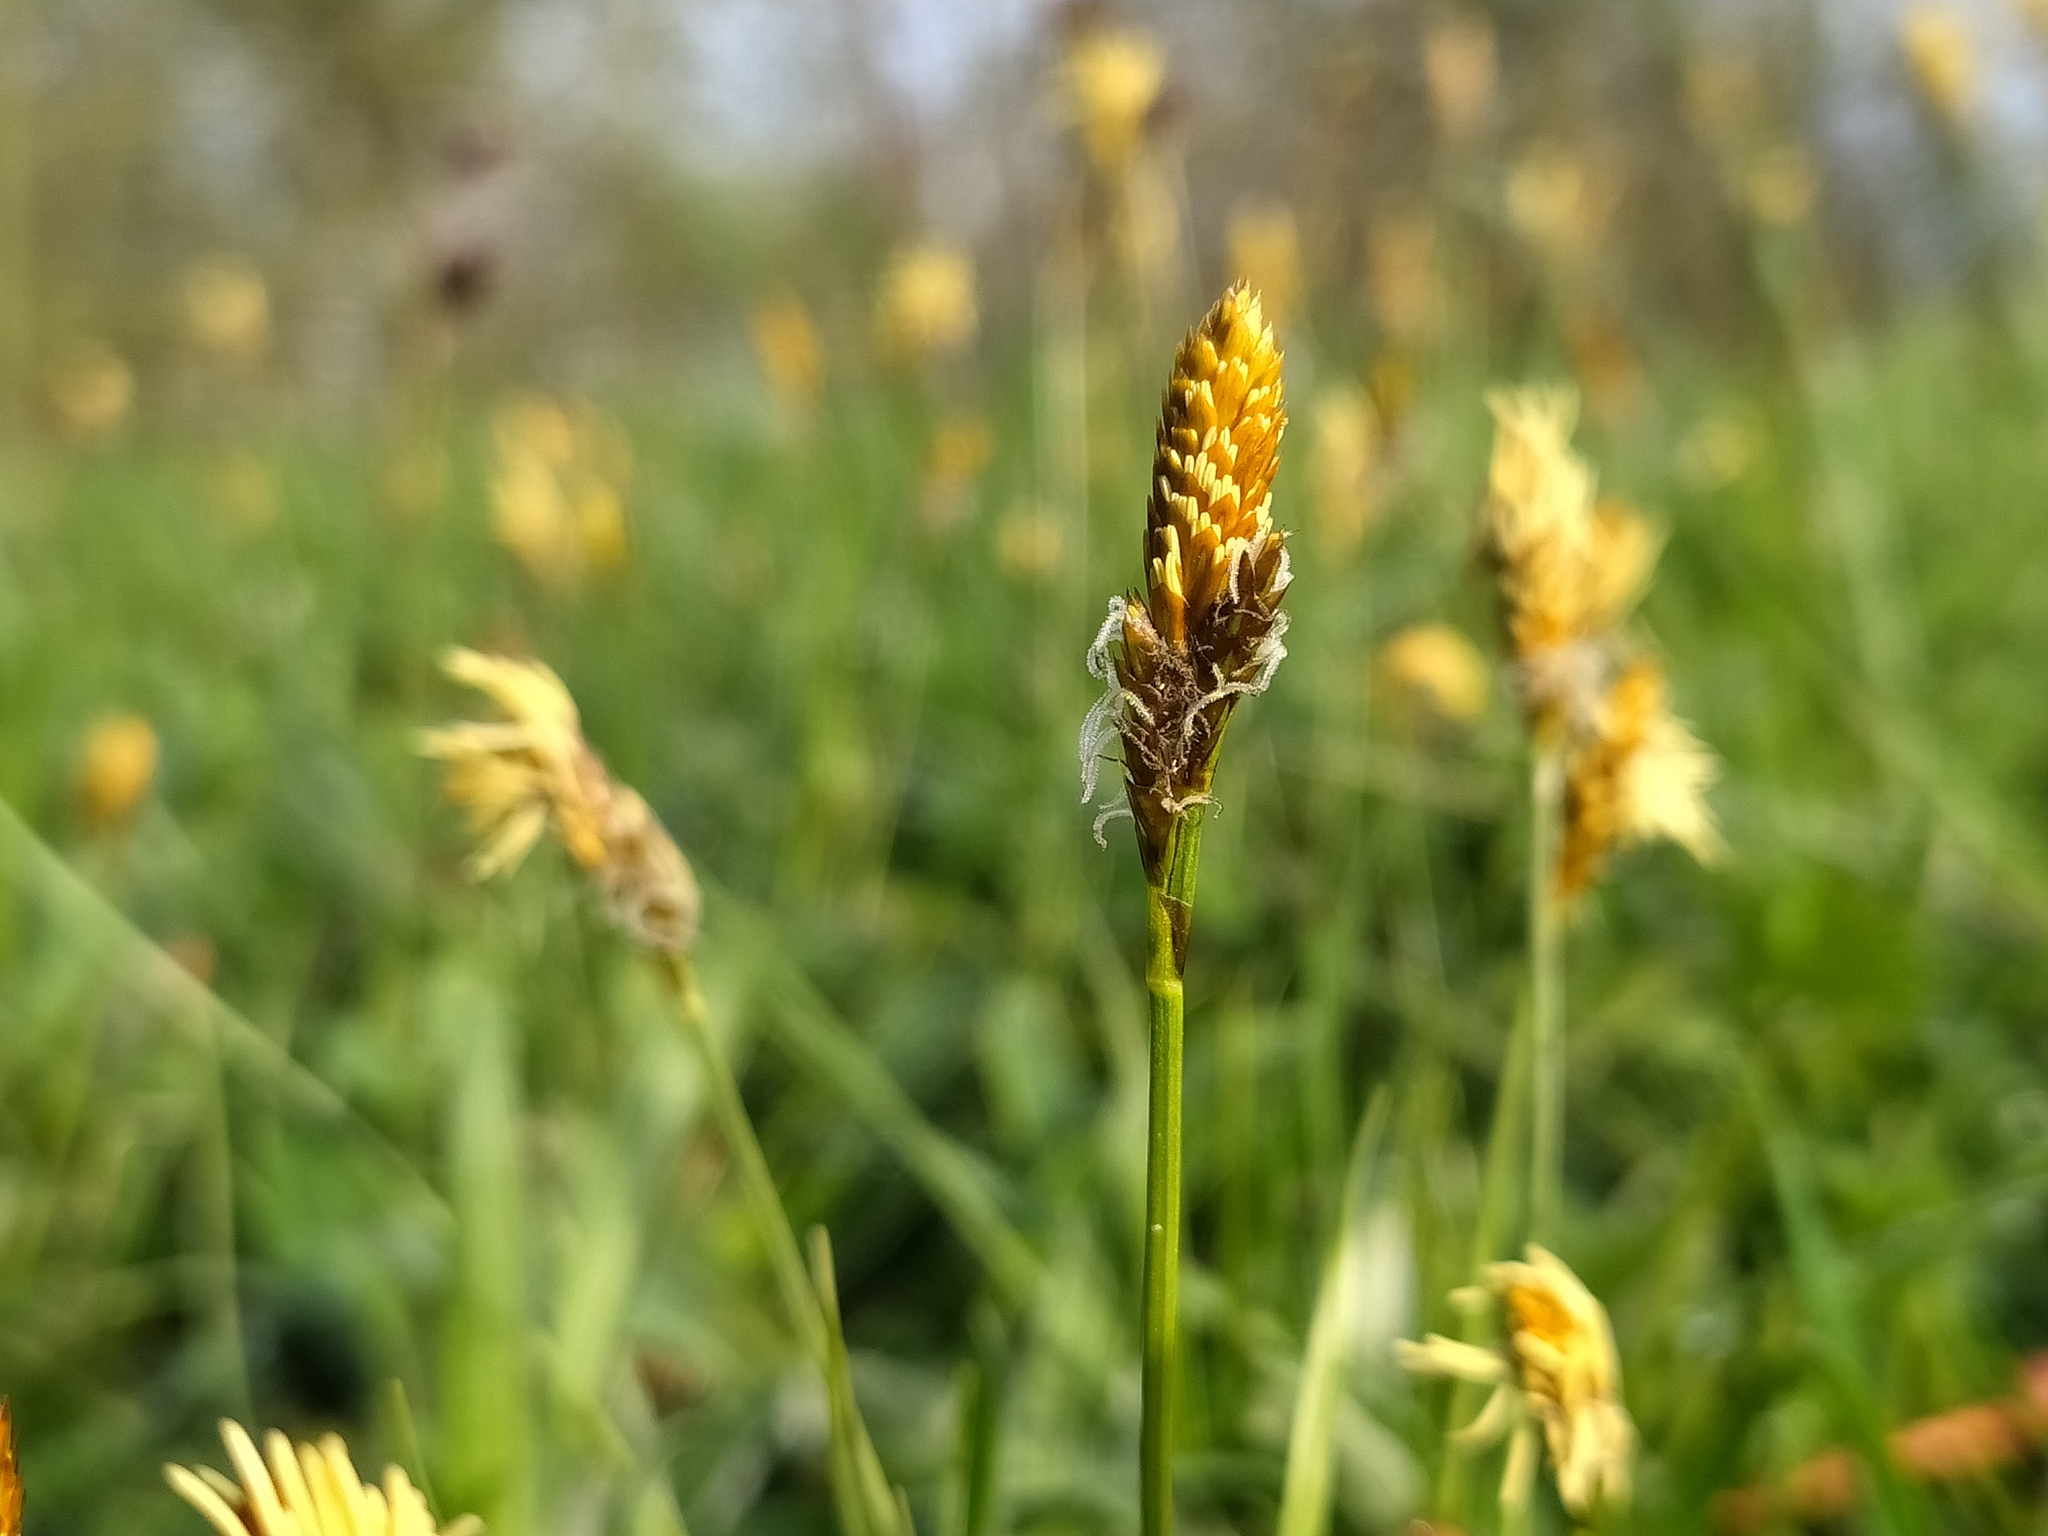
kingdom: Plantae
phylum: Tracheophyta
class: Liliopsida
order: Poales
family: Cyperaceae
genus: Carex
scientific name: Carex caryophyllea
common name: Spring sedge
